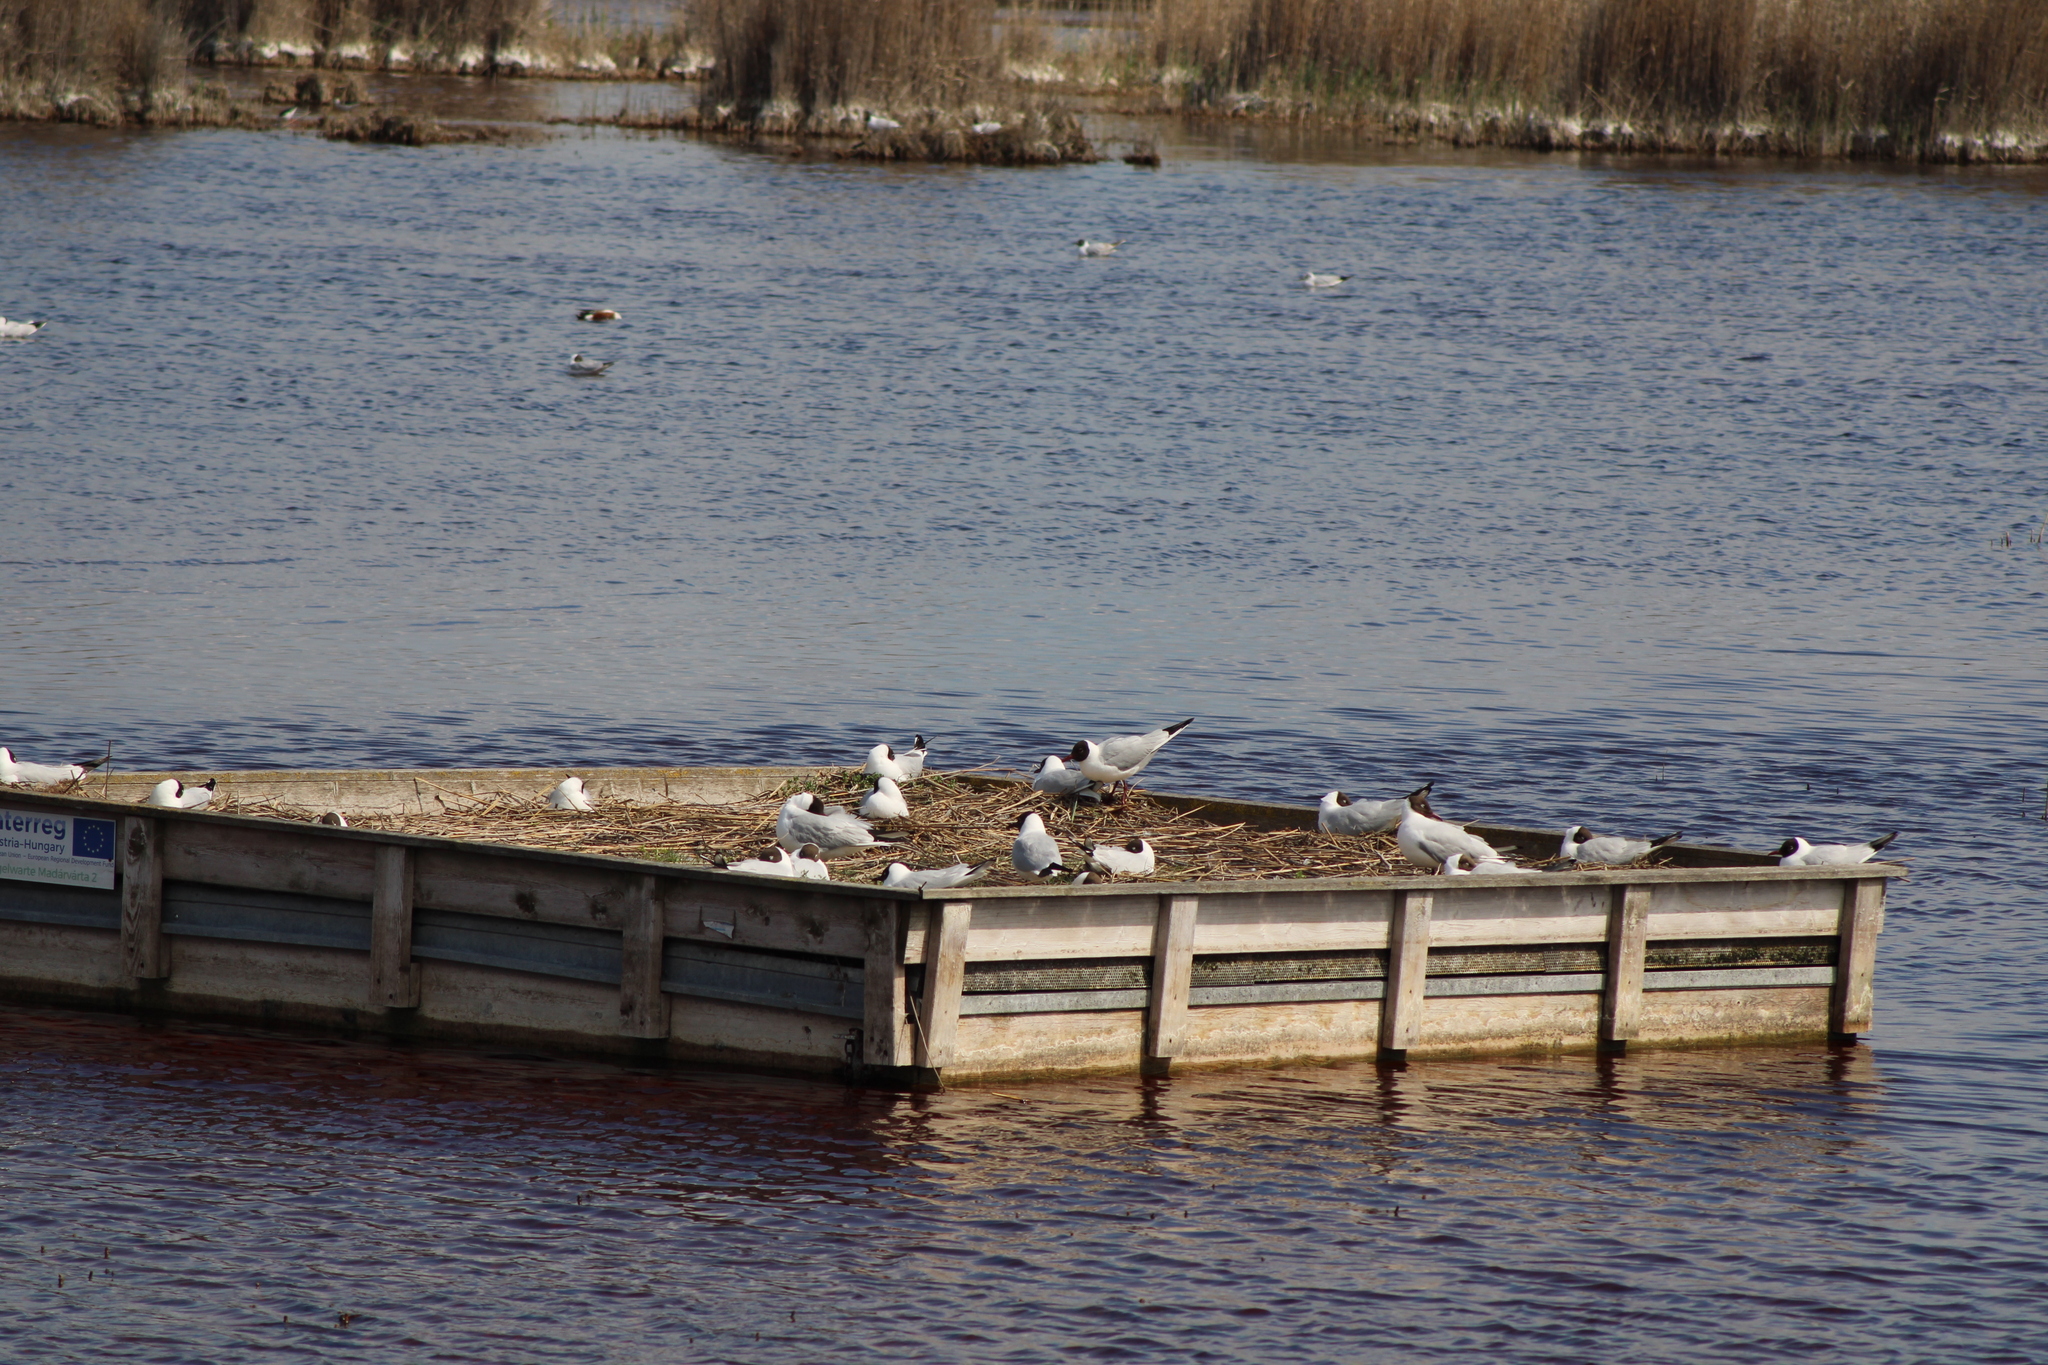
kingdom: Animalia
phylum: Chordata
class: Aves
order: Charadriiformes
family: Laridae
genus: Chroicocephalus
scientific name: Chroicocephalus ridibundus
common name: Black-headed gull
